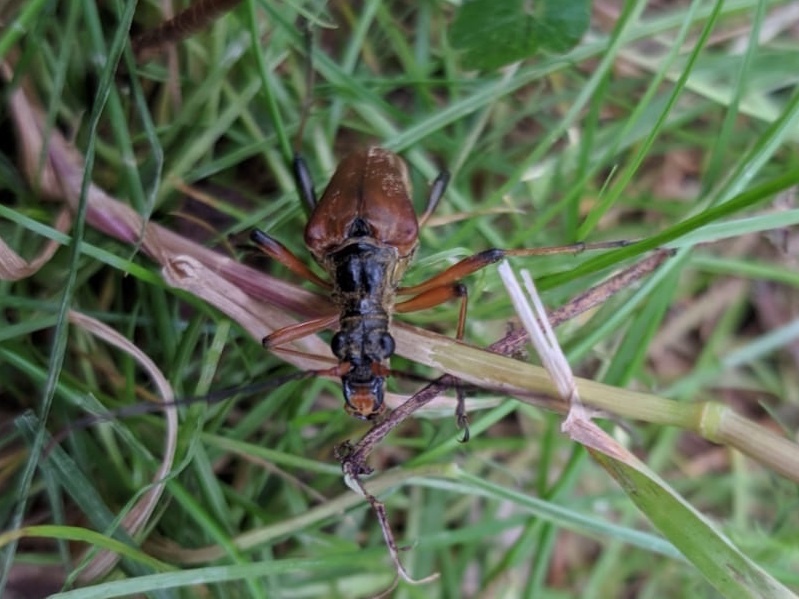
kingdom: Animalia
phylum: Arthropoda
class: Insecta
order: Coleoptera
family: Cerambycidae
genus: Stenocorus
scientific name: Stenocorus meridianus
